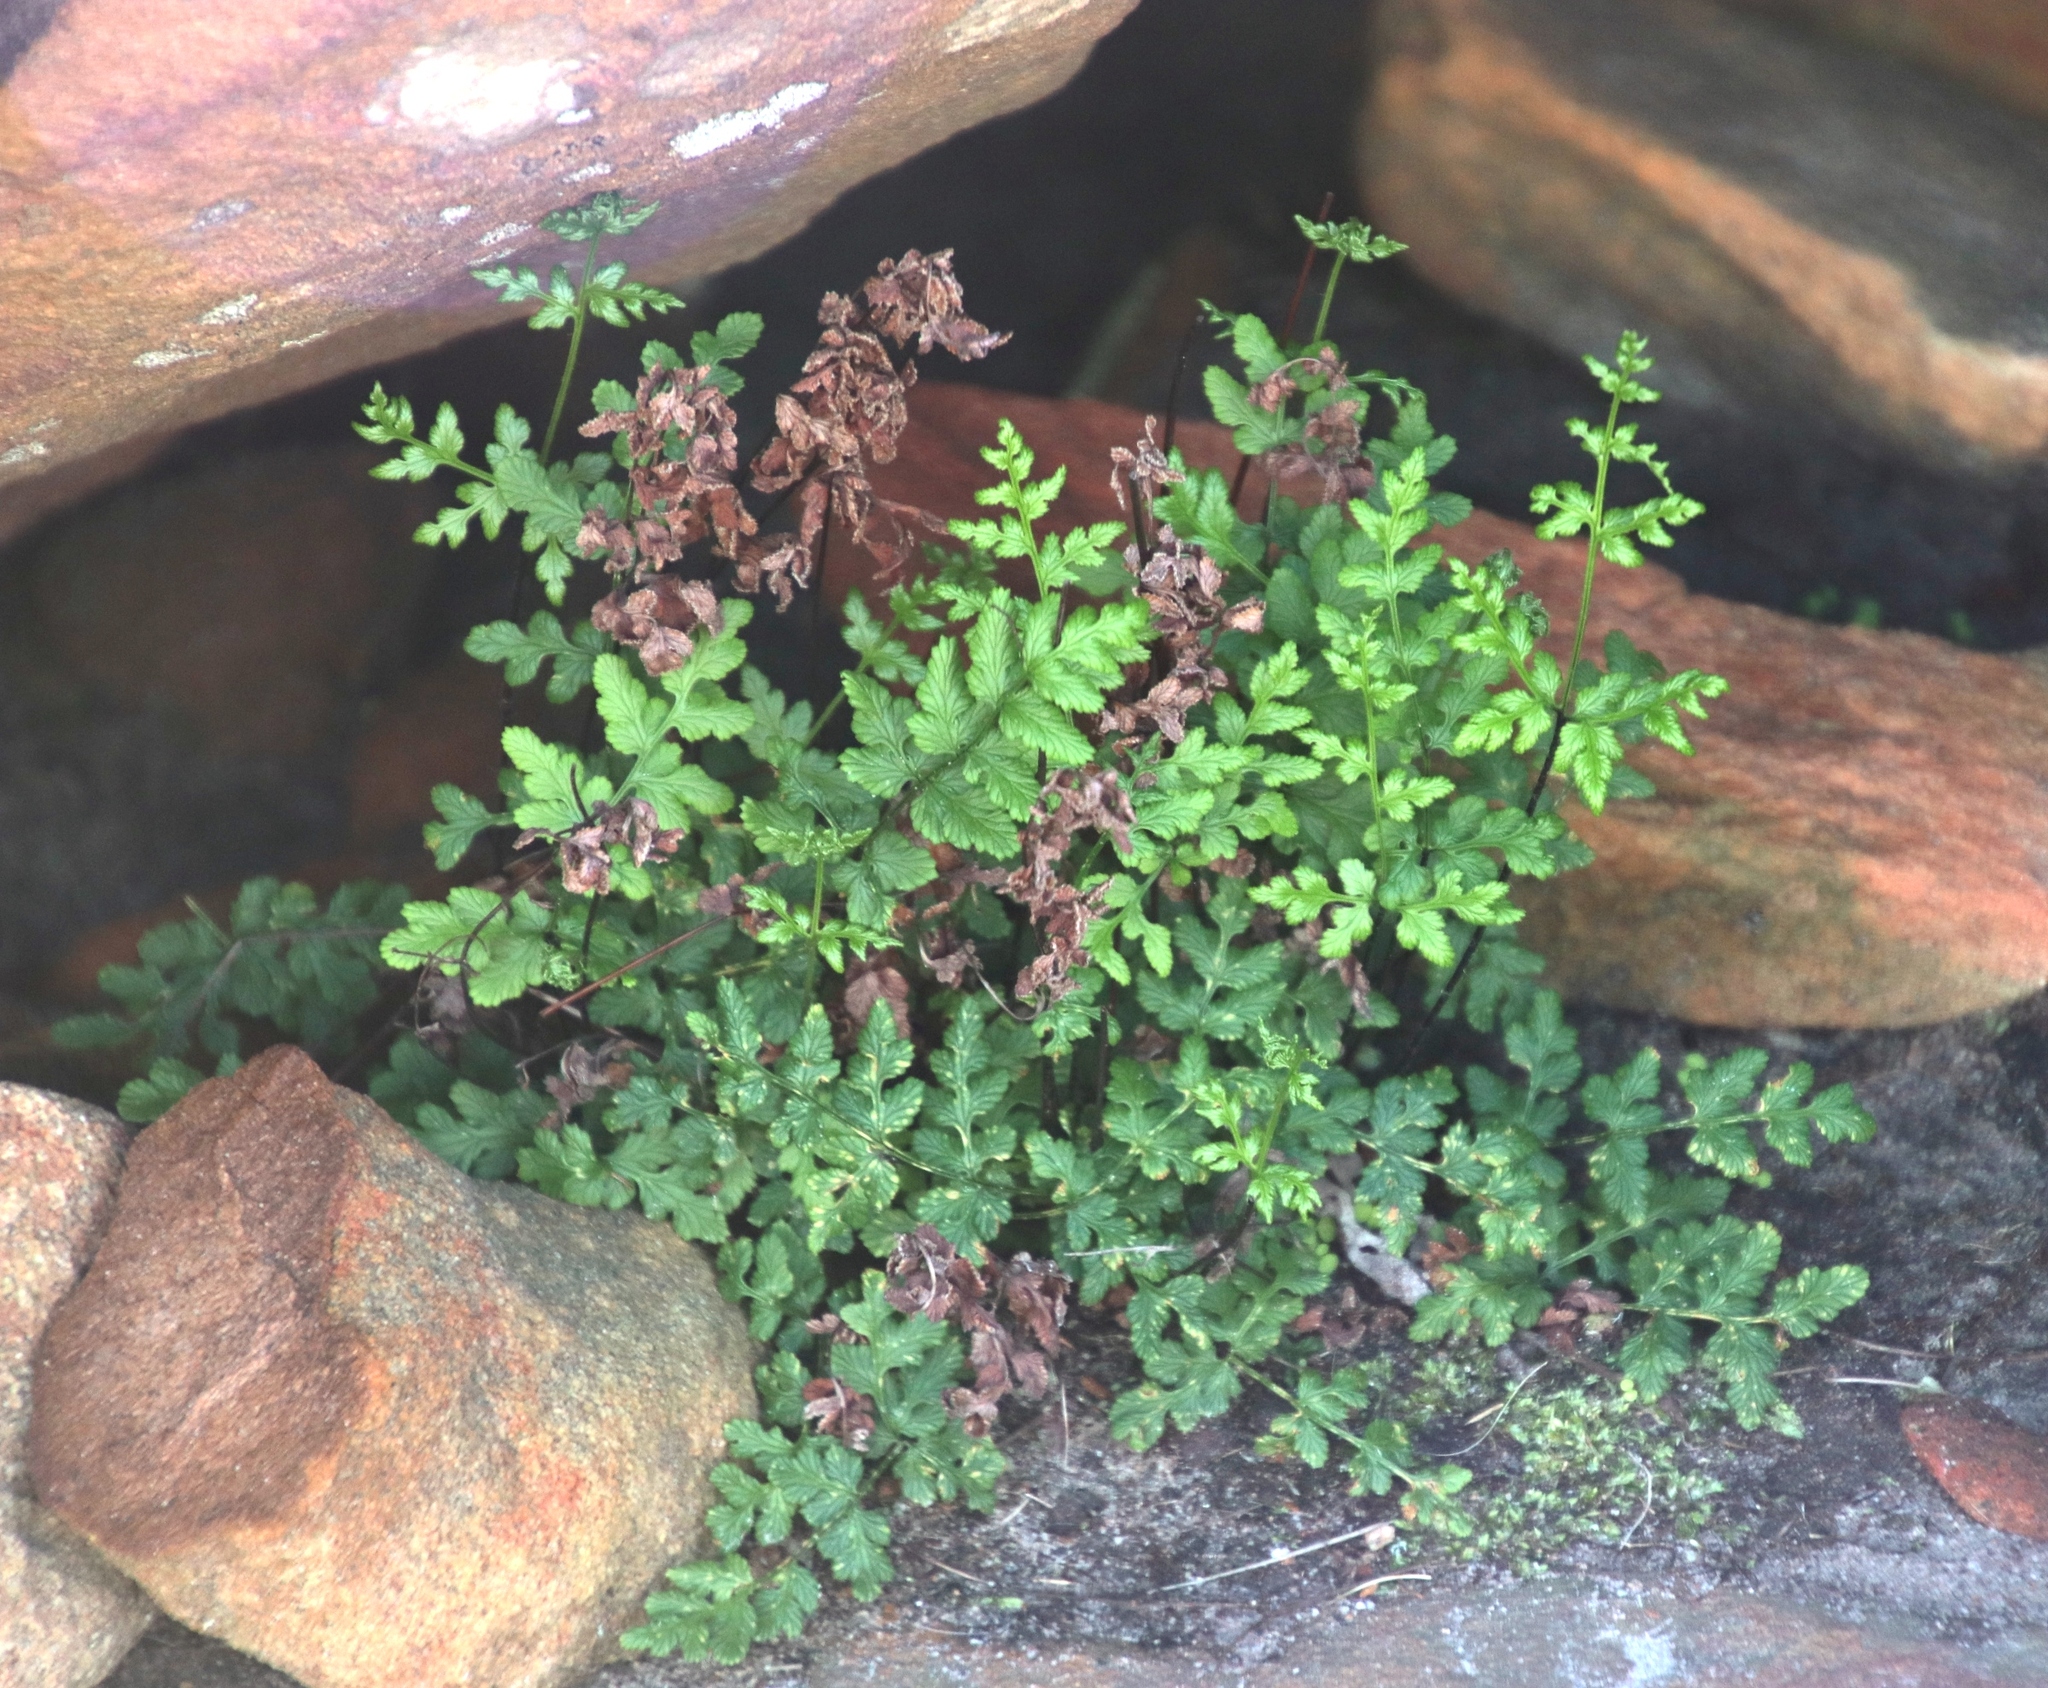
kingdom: Plantae
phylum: Tracheophyta
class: Polypodiopsida
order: Polypodiales
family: Pteridaceae
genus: Cheilanthes
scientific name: Cheilanthes capensis
